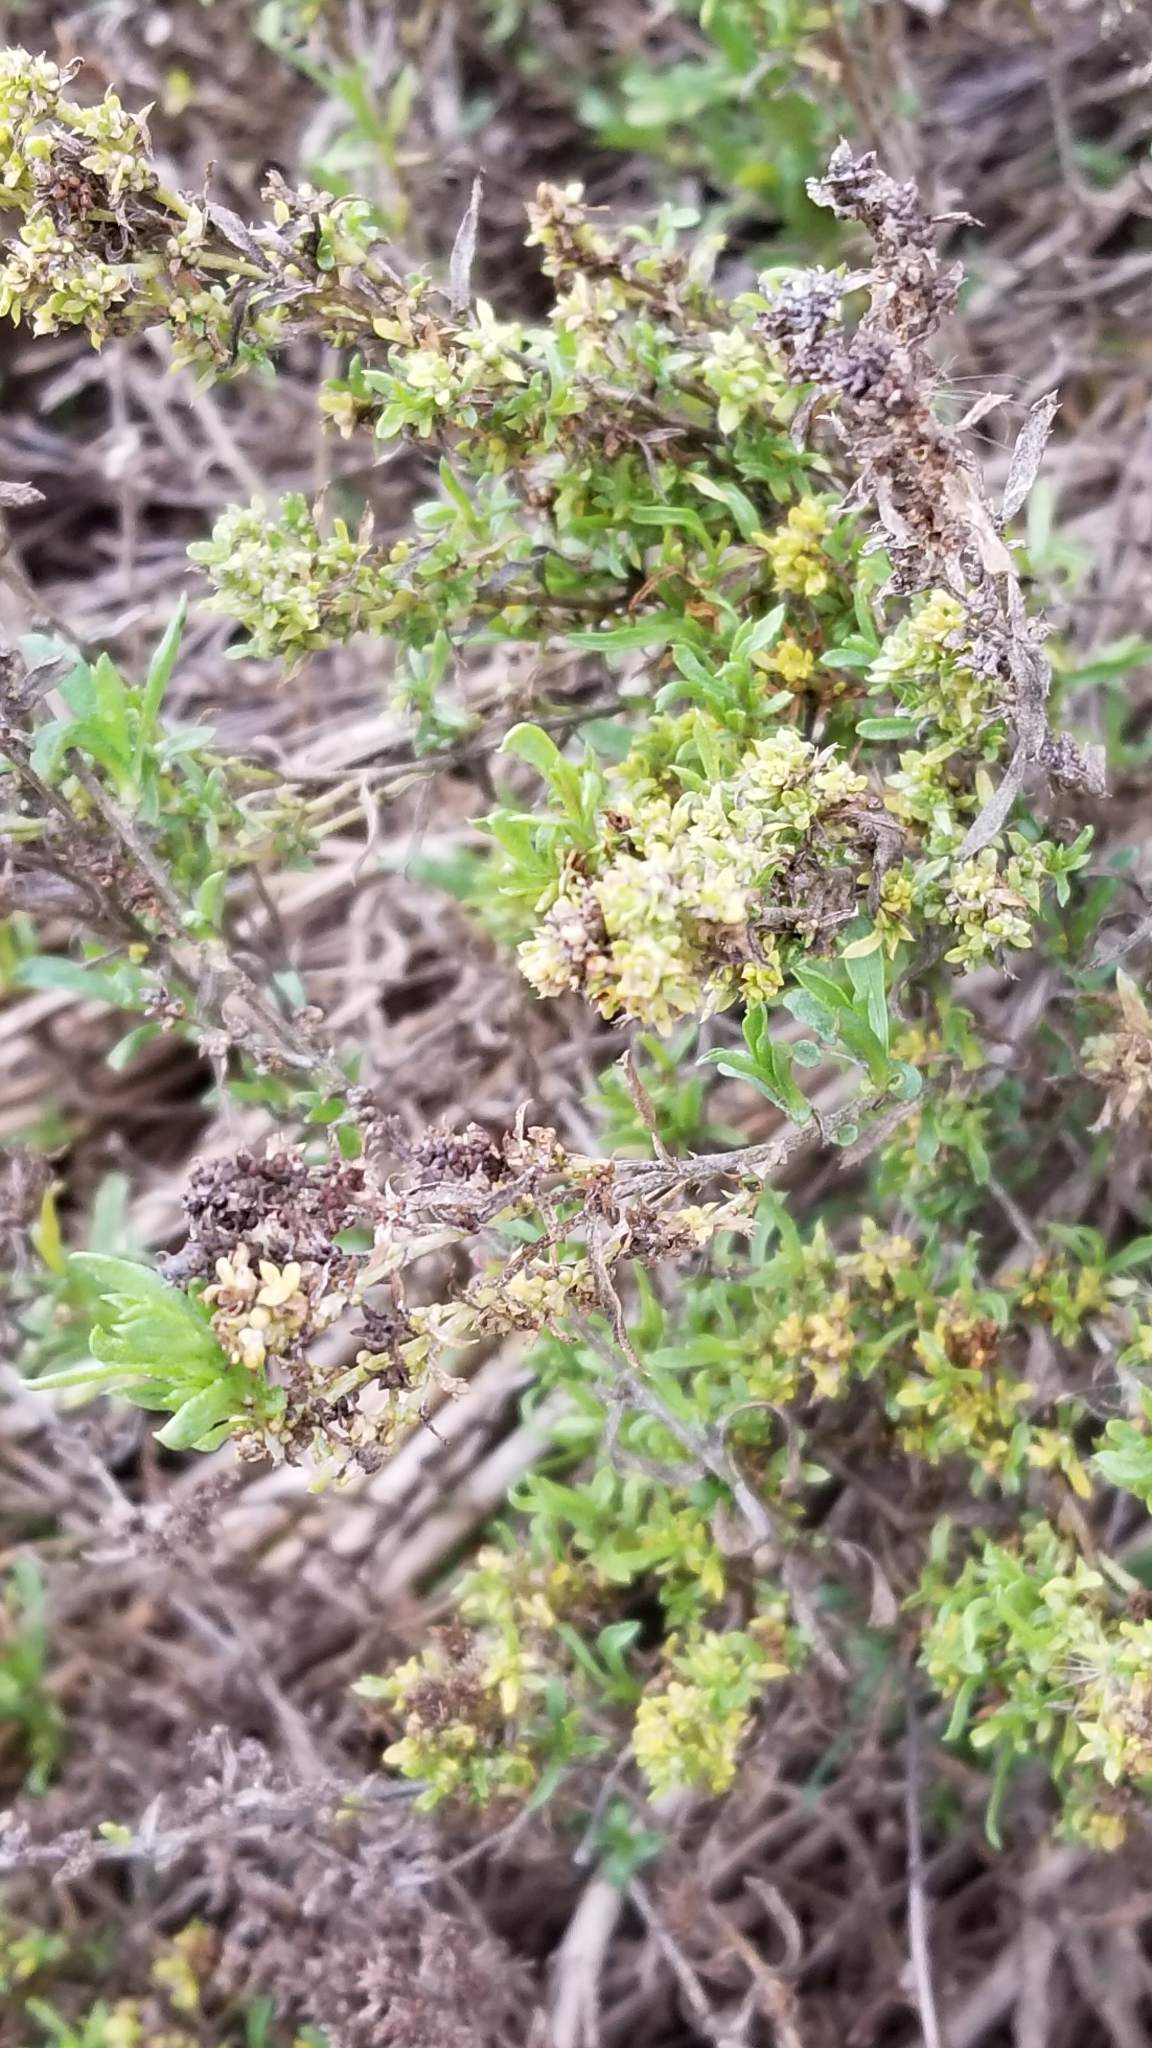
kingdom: Plantae
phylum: Tracheophyta
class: Magnoliopsida
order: Asterales
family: Asteraceae
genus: Isocoma
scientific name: Isocoma menziesii
